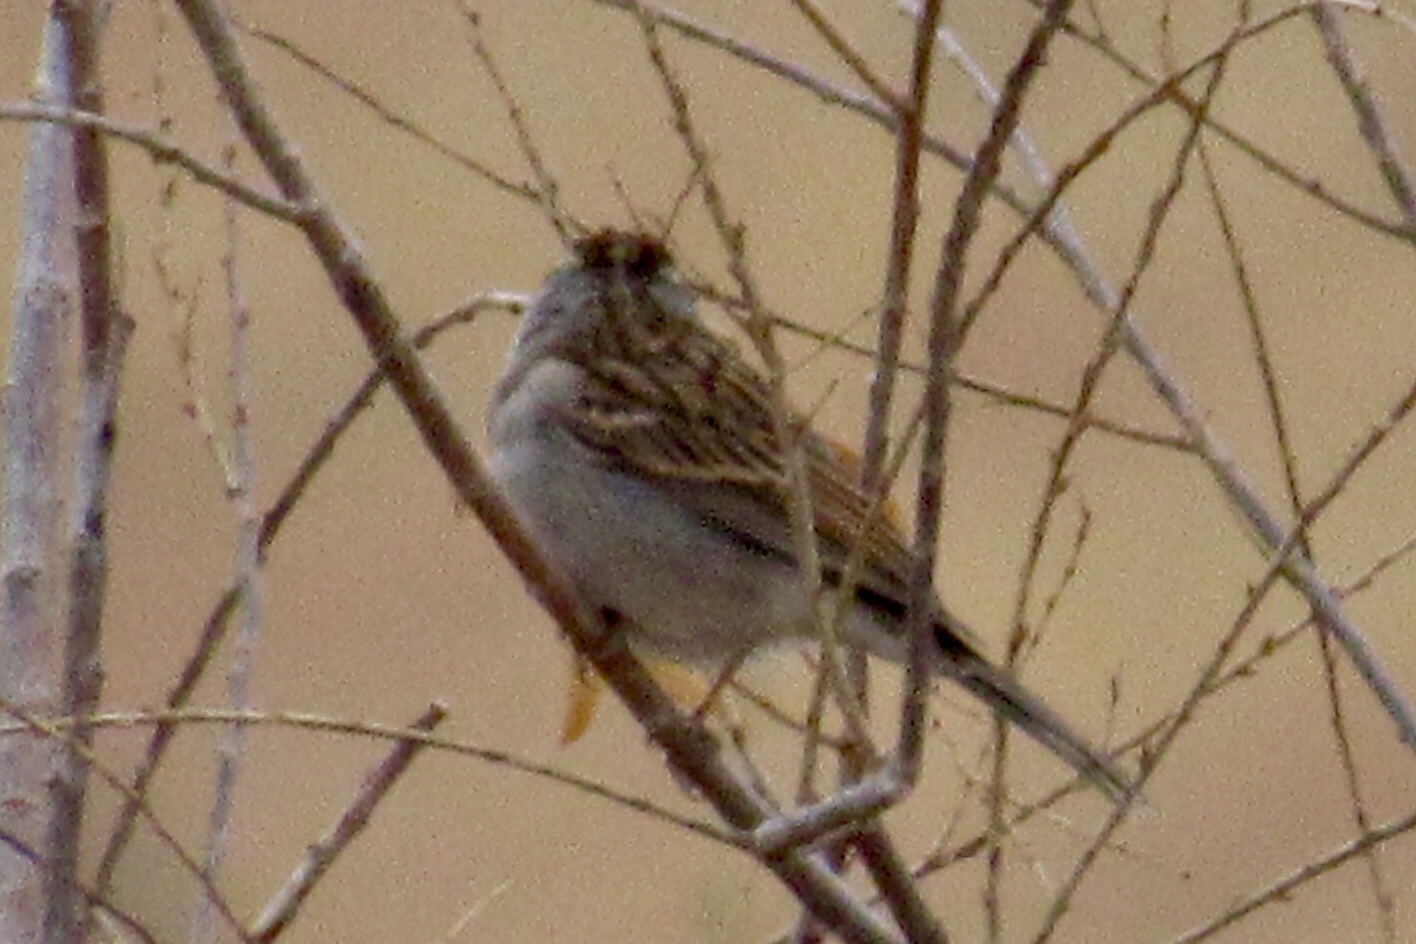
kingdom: Animalia
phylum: Chordata
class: Aves
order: Passeriformes
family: Passerellidae
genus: Spizella
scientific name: Spizella passerina
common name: Chipping sparrow
